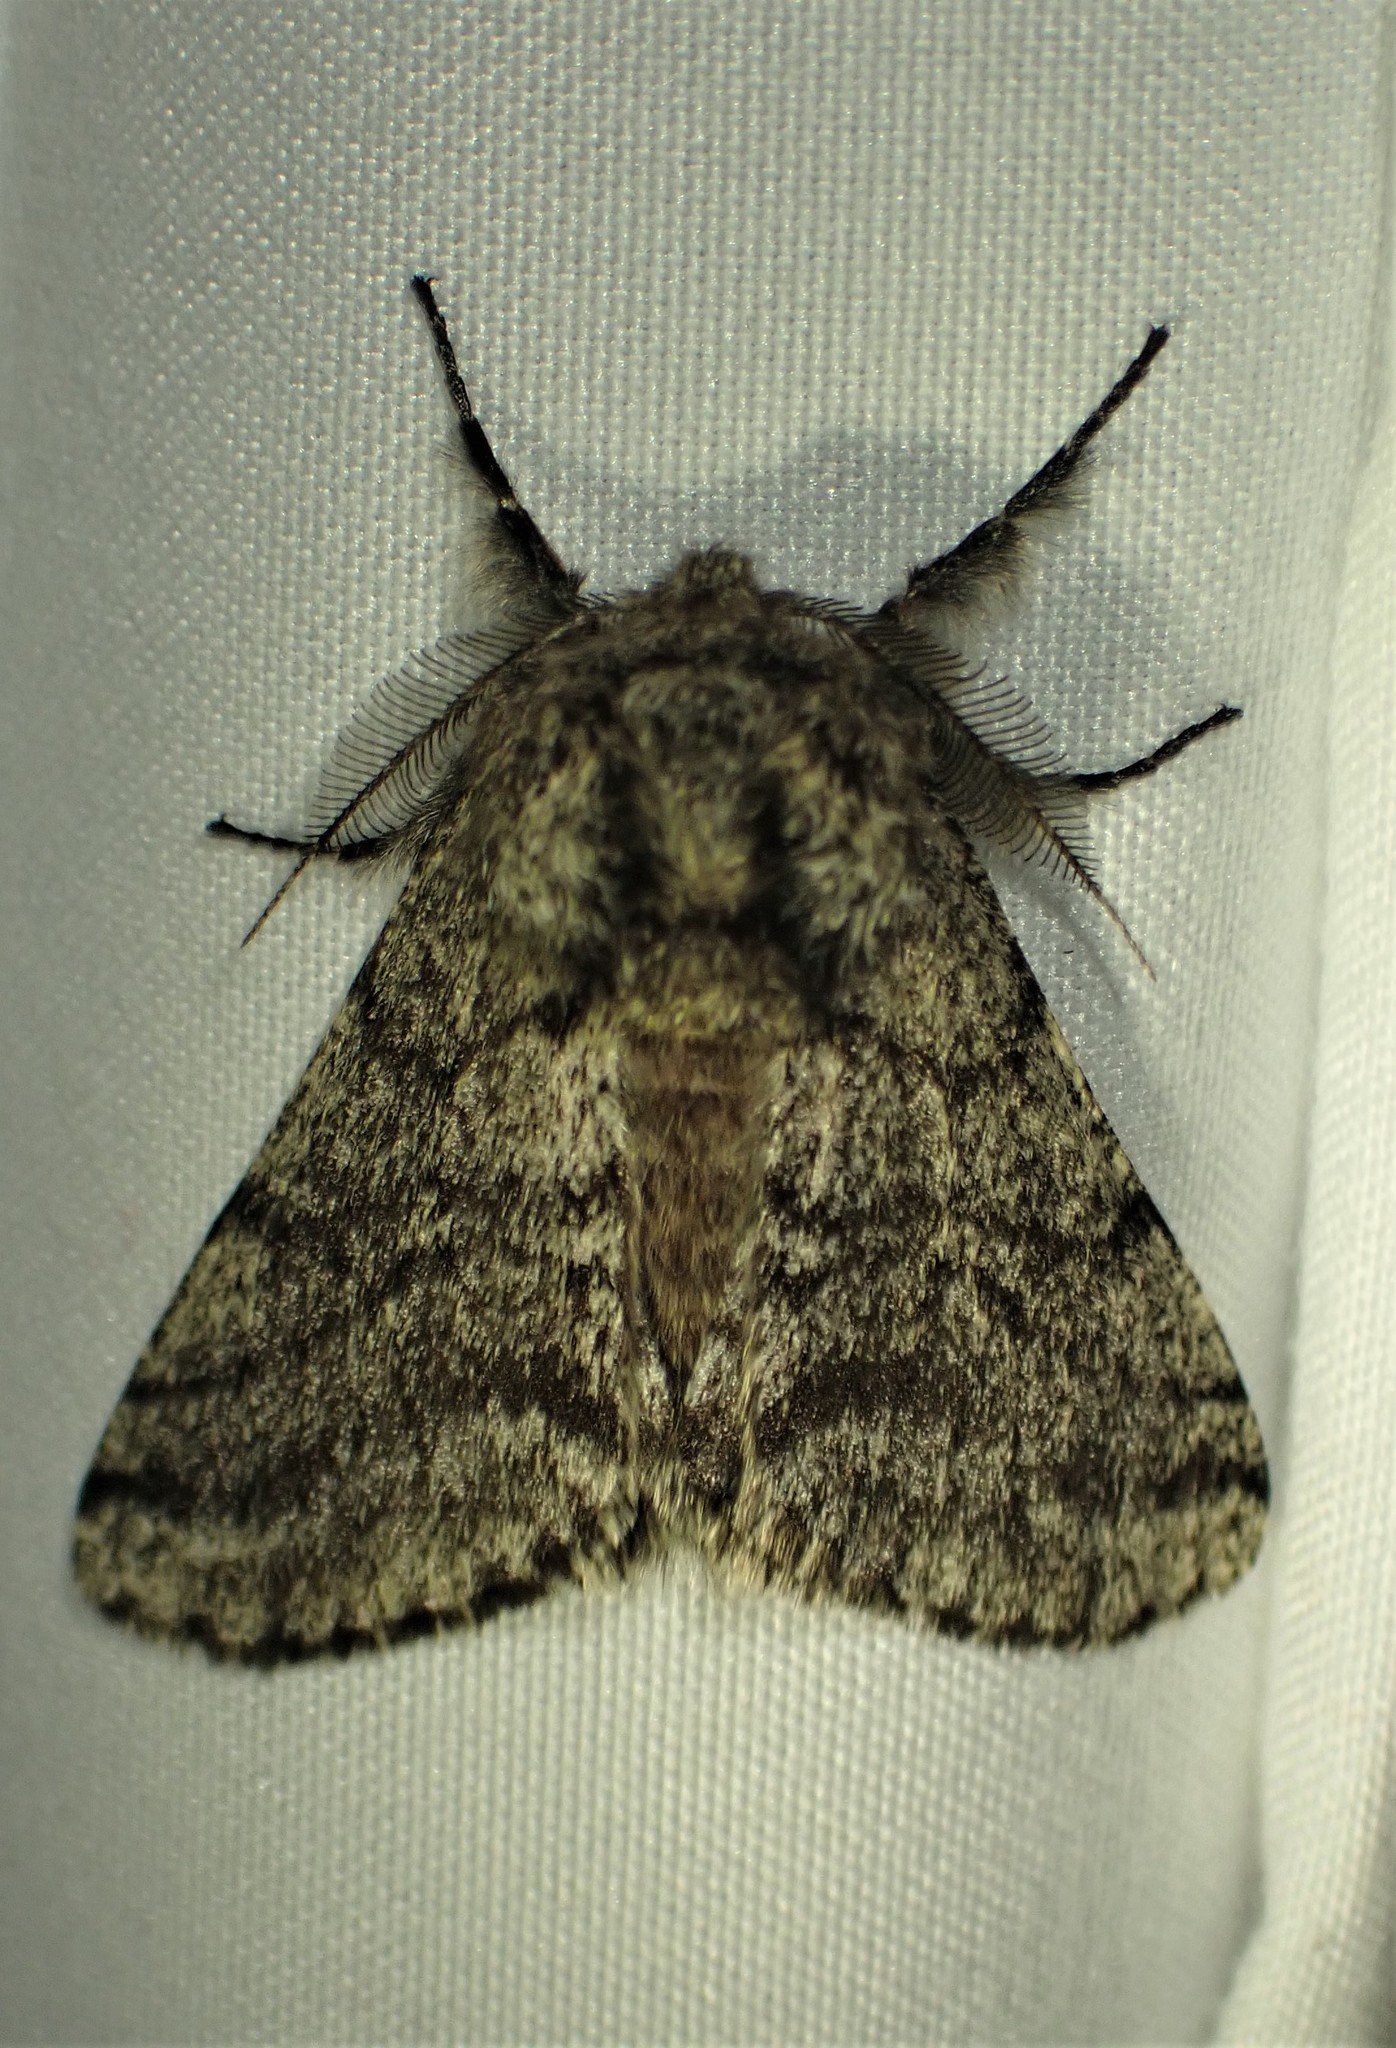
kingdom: Animalia
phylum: Arthropoda
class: Insecta
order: Lepidoptera
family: Geometridae
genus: Lycia
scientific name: Lycia ursaria
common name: Stout spanworm
